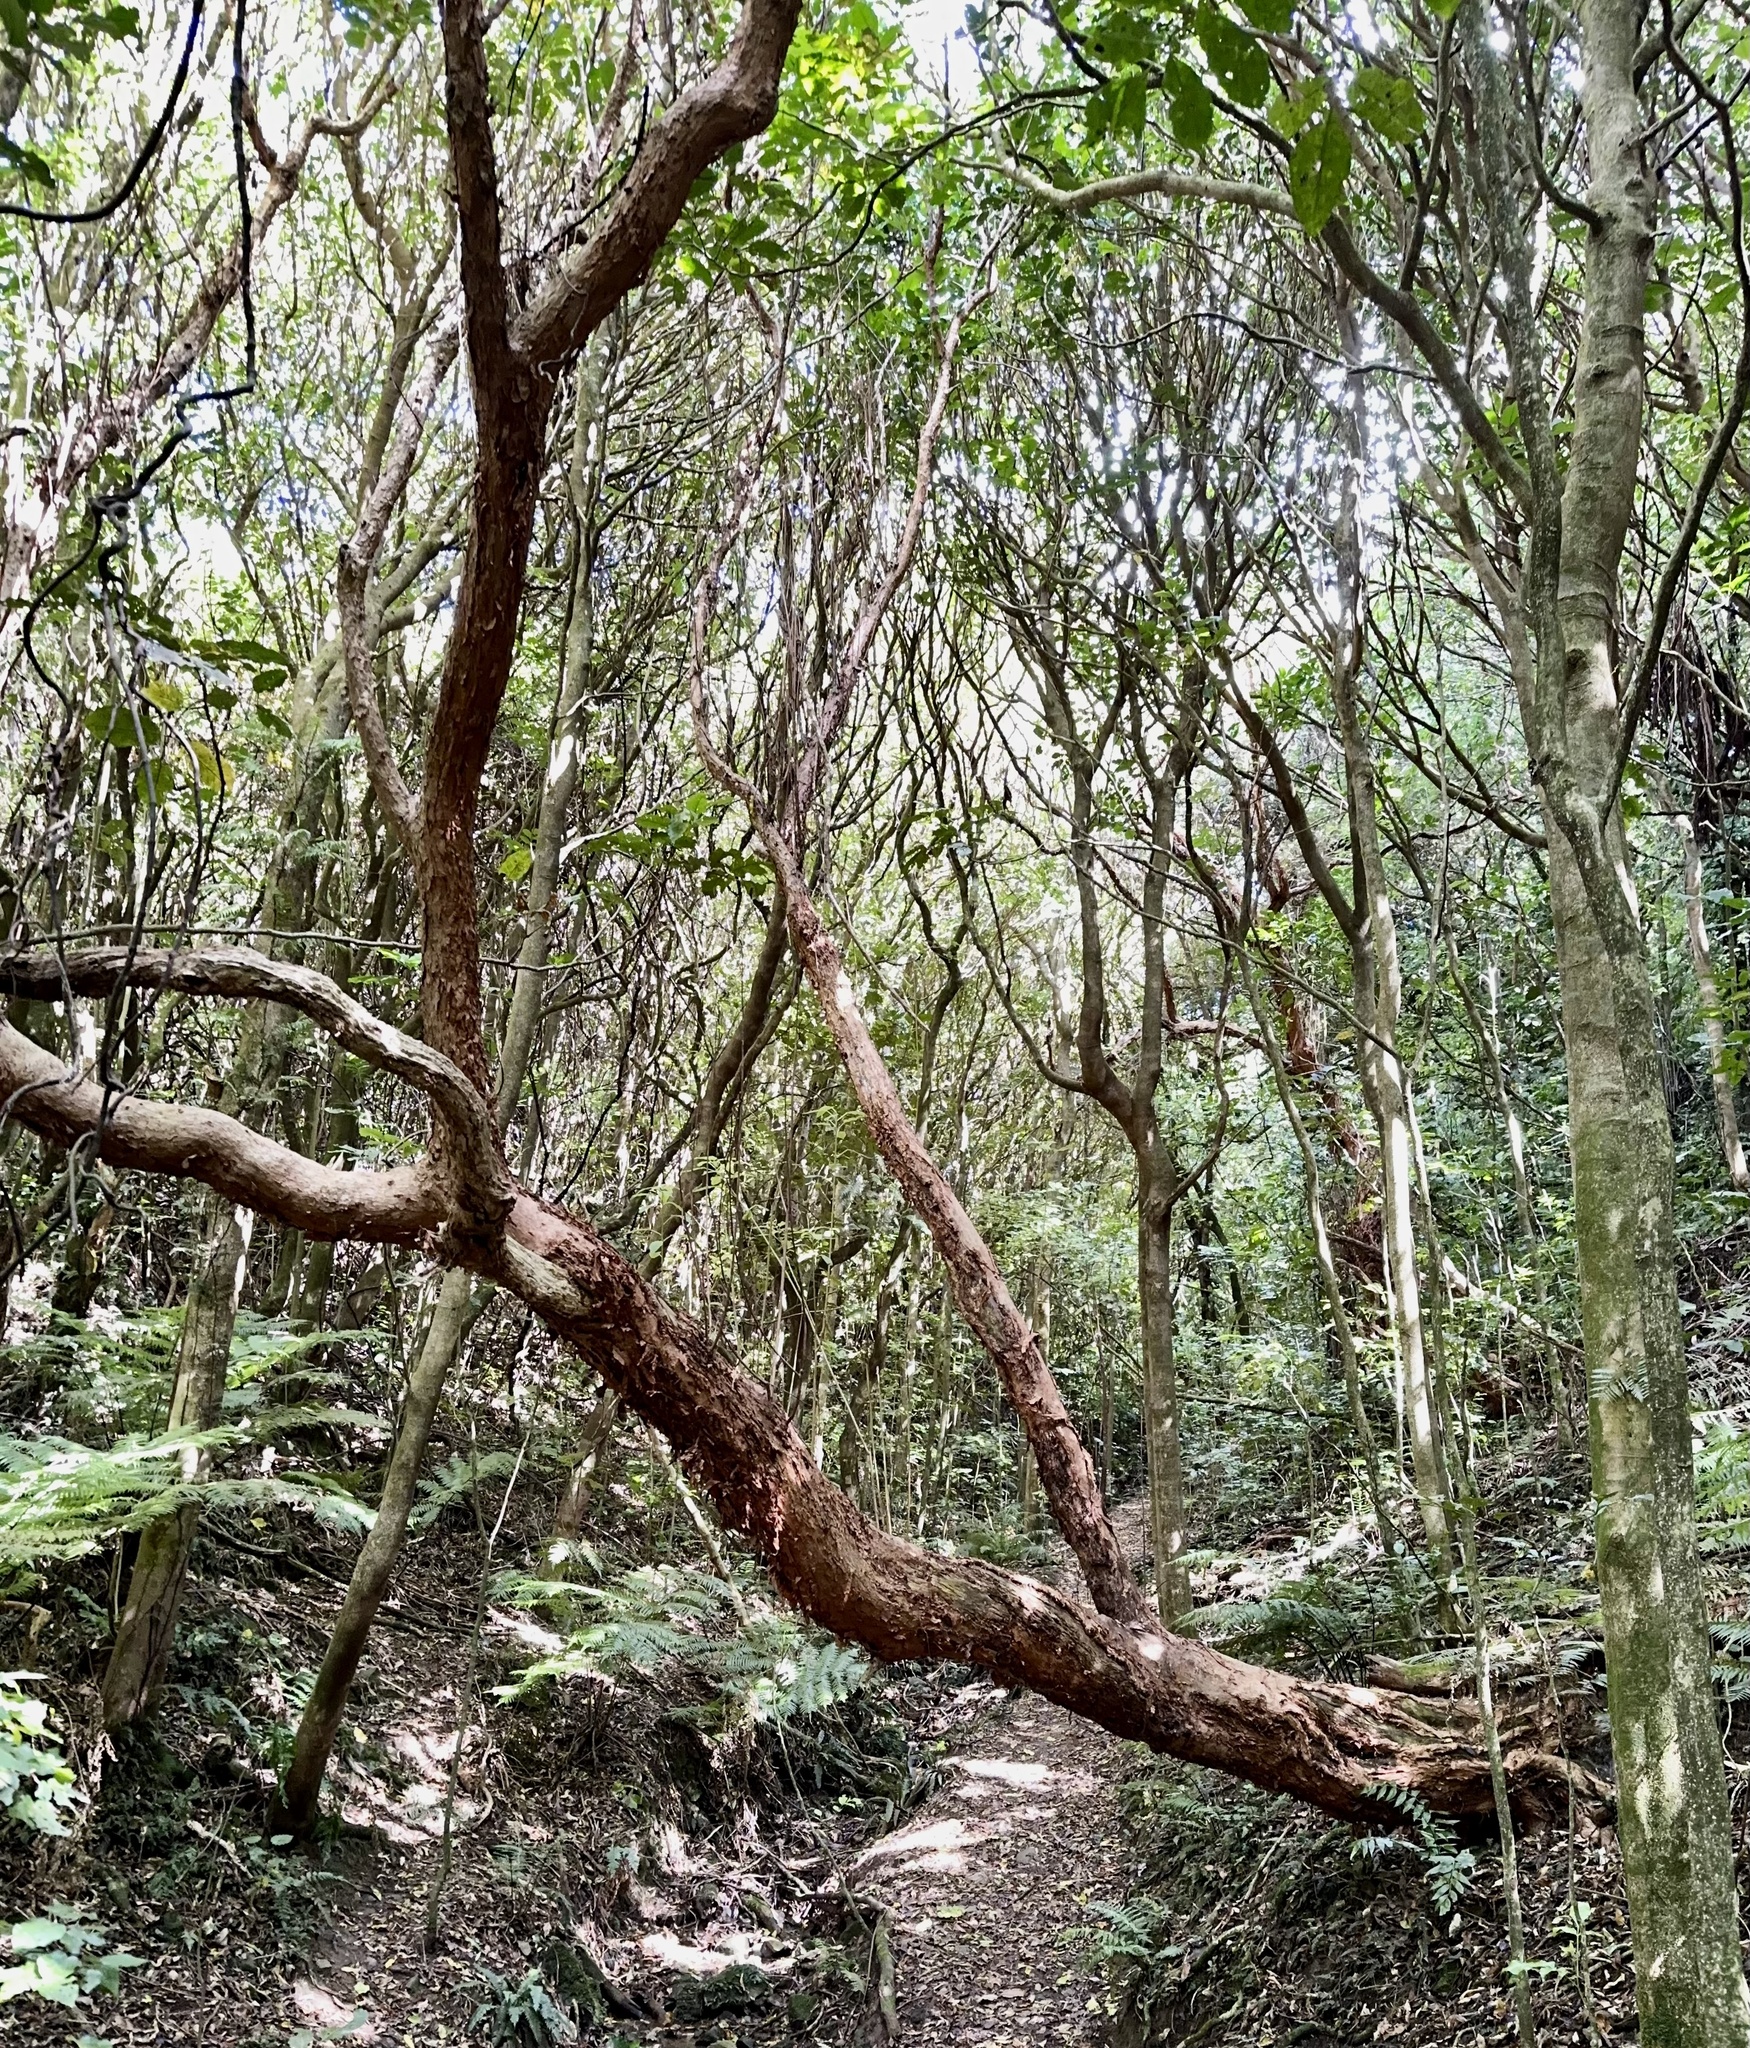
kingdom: Plantae
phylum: Tracheophyta
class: Magnoliopsida
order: Myrtales
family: Onagraceae
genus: Fuchsia
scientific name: Fuchsia excorticata
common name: Tree fuchsia
